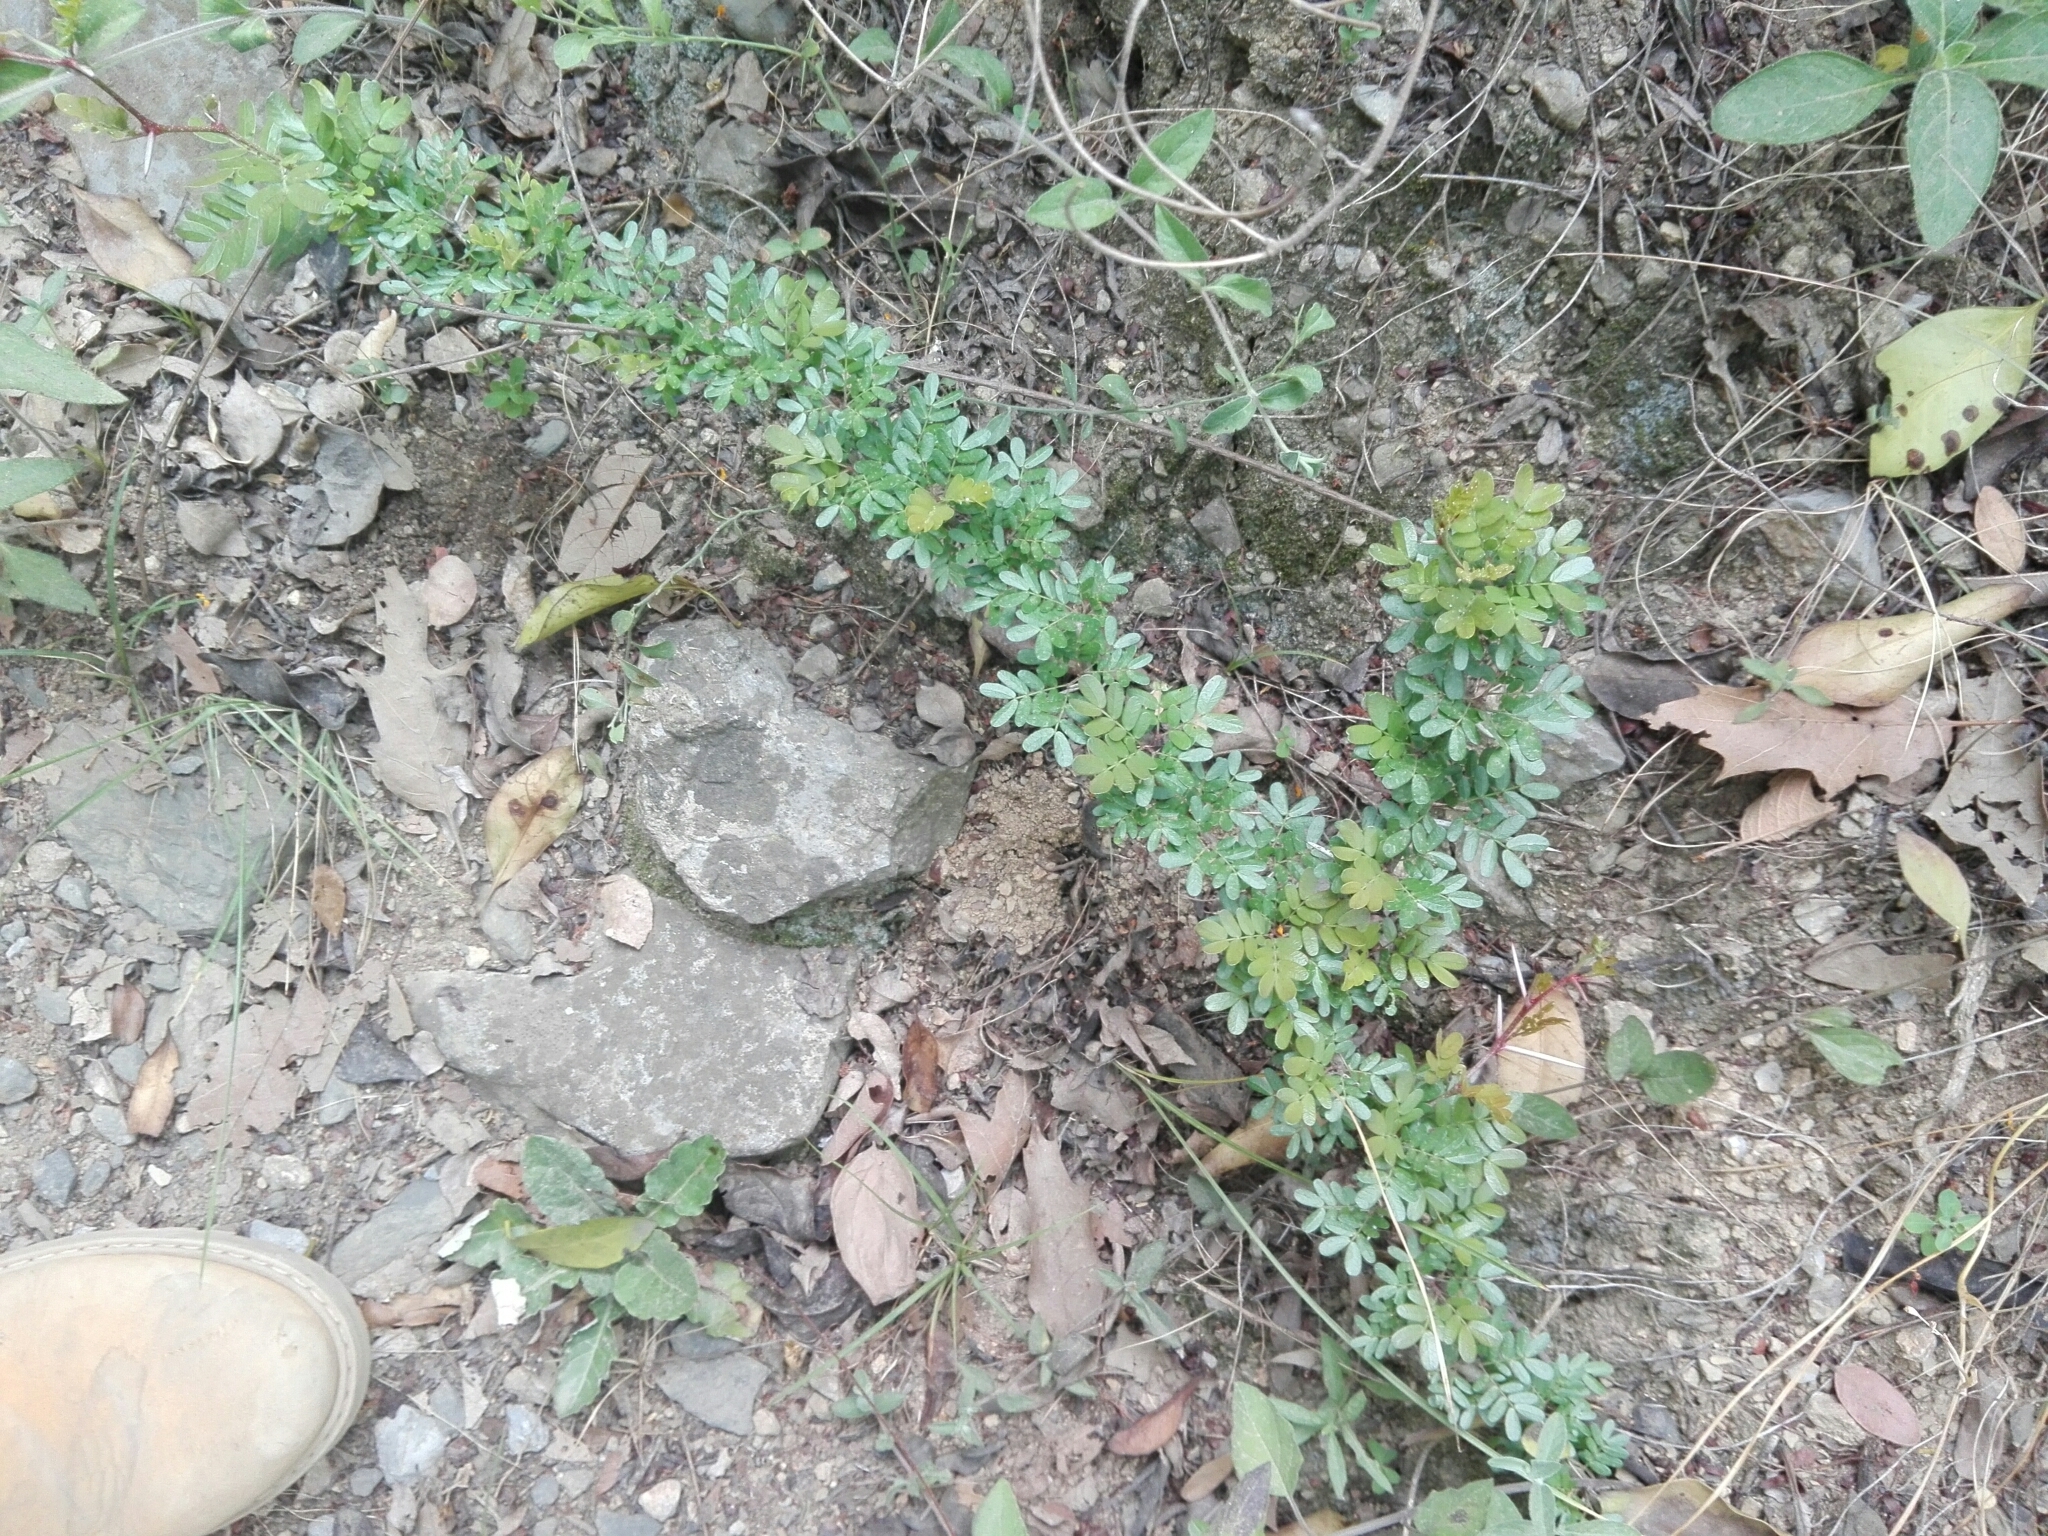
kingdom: Plantae
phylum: Tracheophyta
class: Magnoliopsida
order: Zygophyllales
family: Zygophyllaceae
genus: Porlieria
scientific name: Porlieria angustifolia
